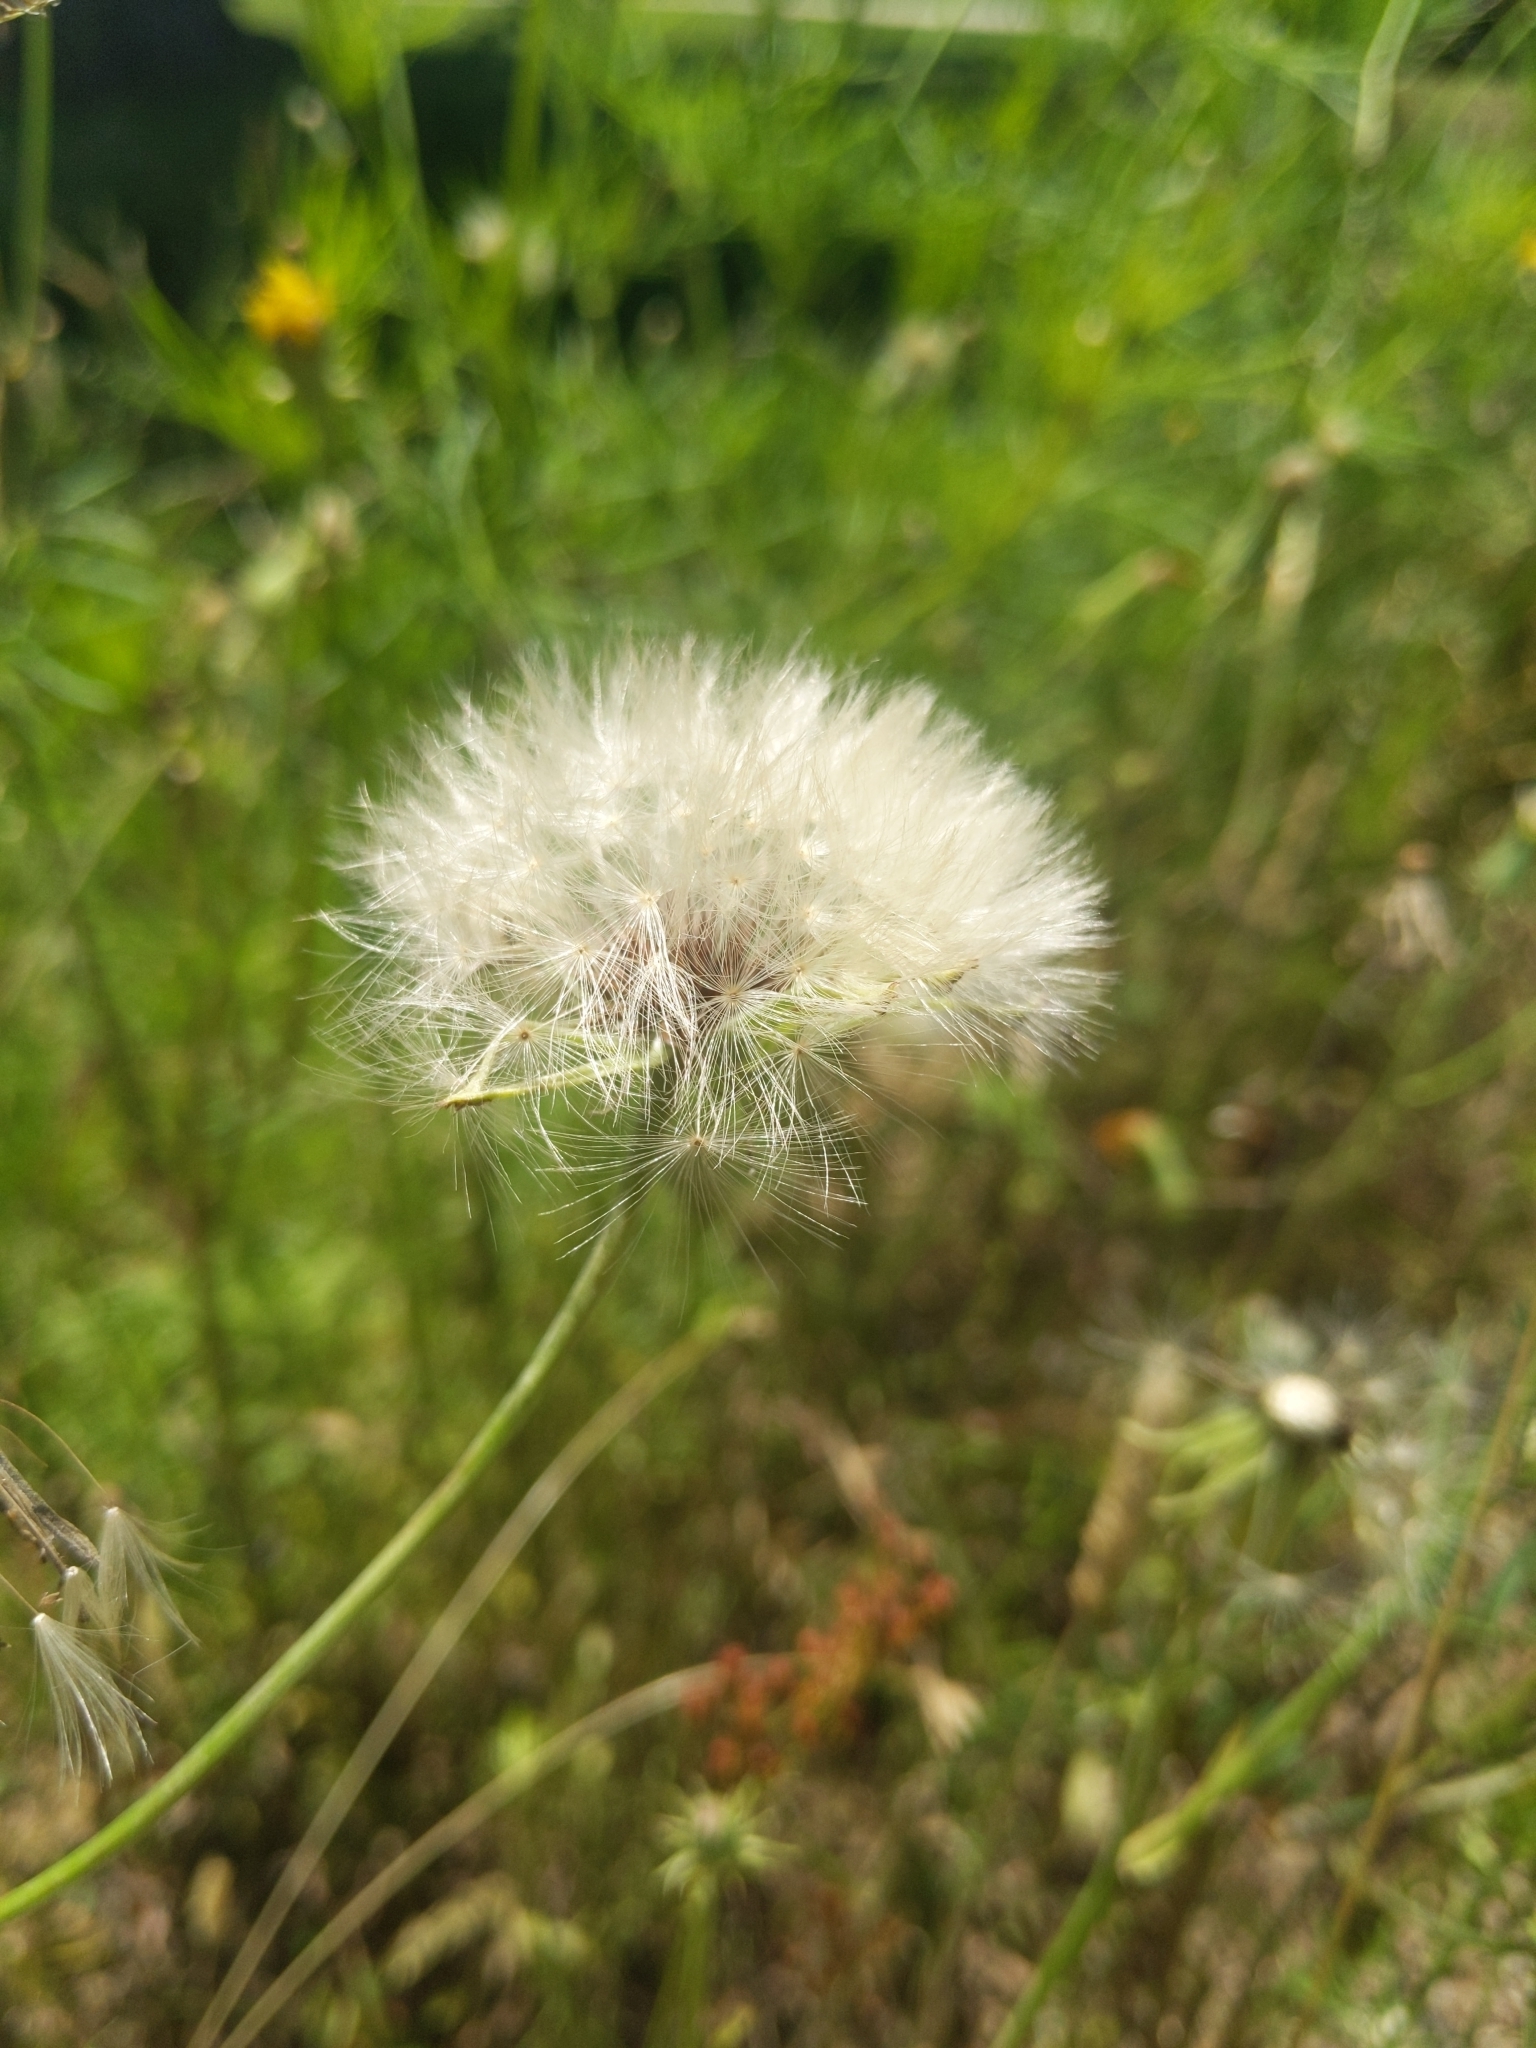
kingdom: Plantae
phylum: Tracheophyta
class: Magnoliopsida
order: Asterales
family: Asteraceae
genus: Taraxacum
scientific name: Taraxacum officinale
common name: Common dandelion
